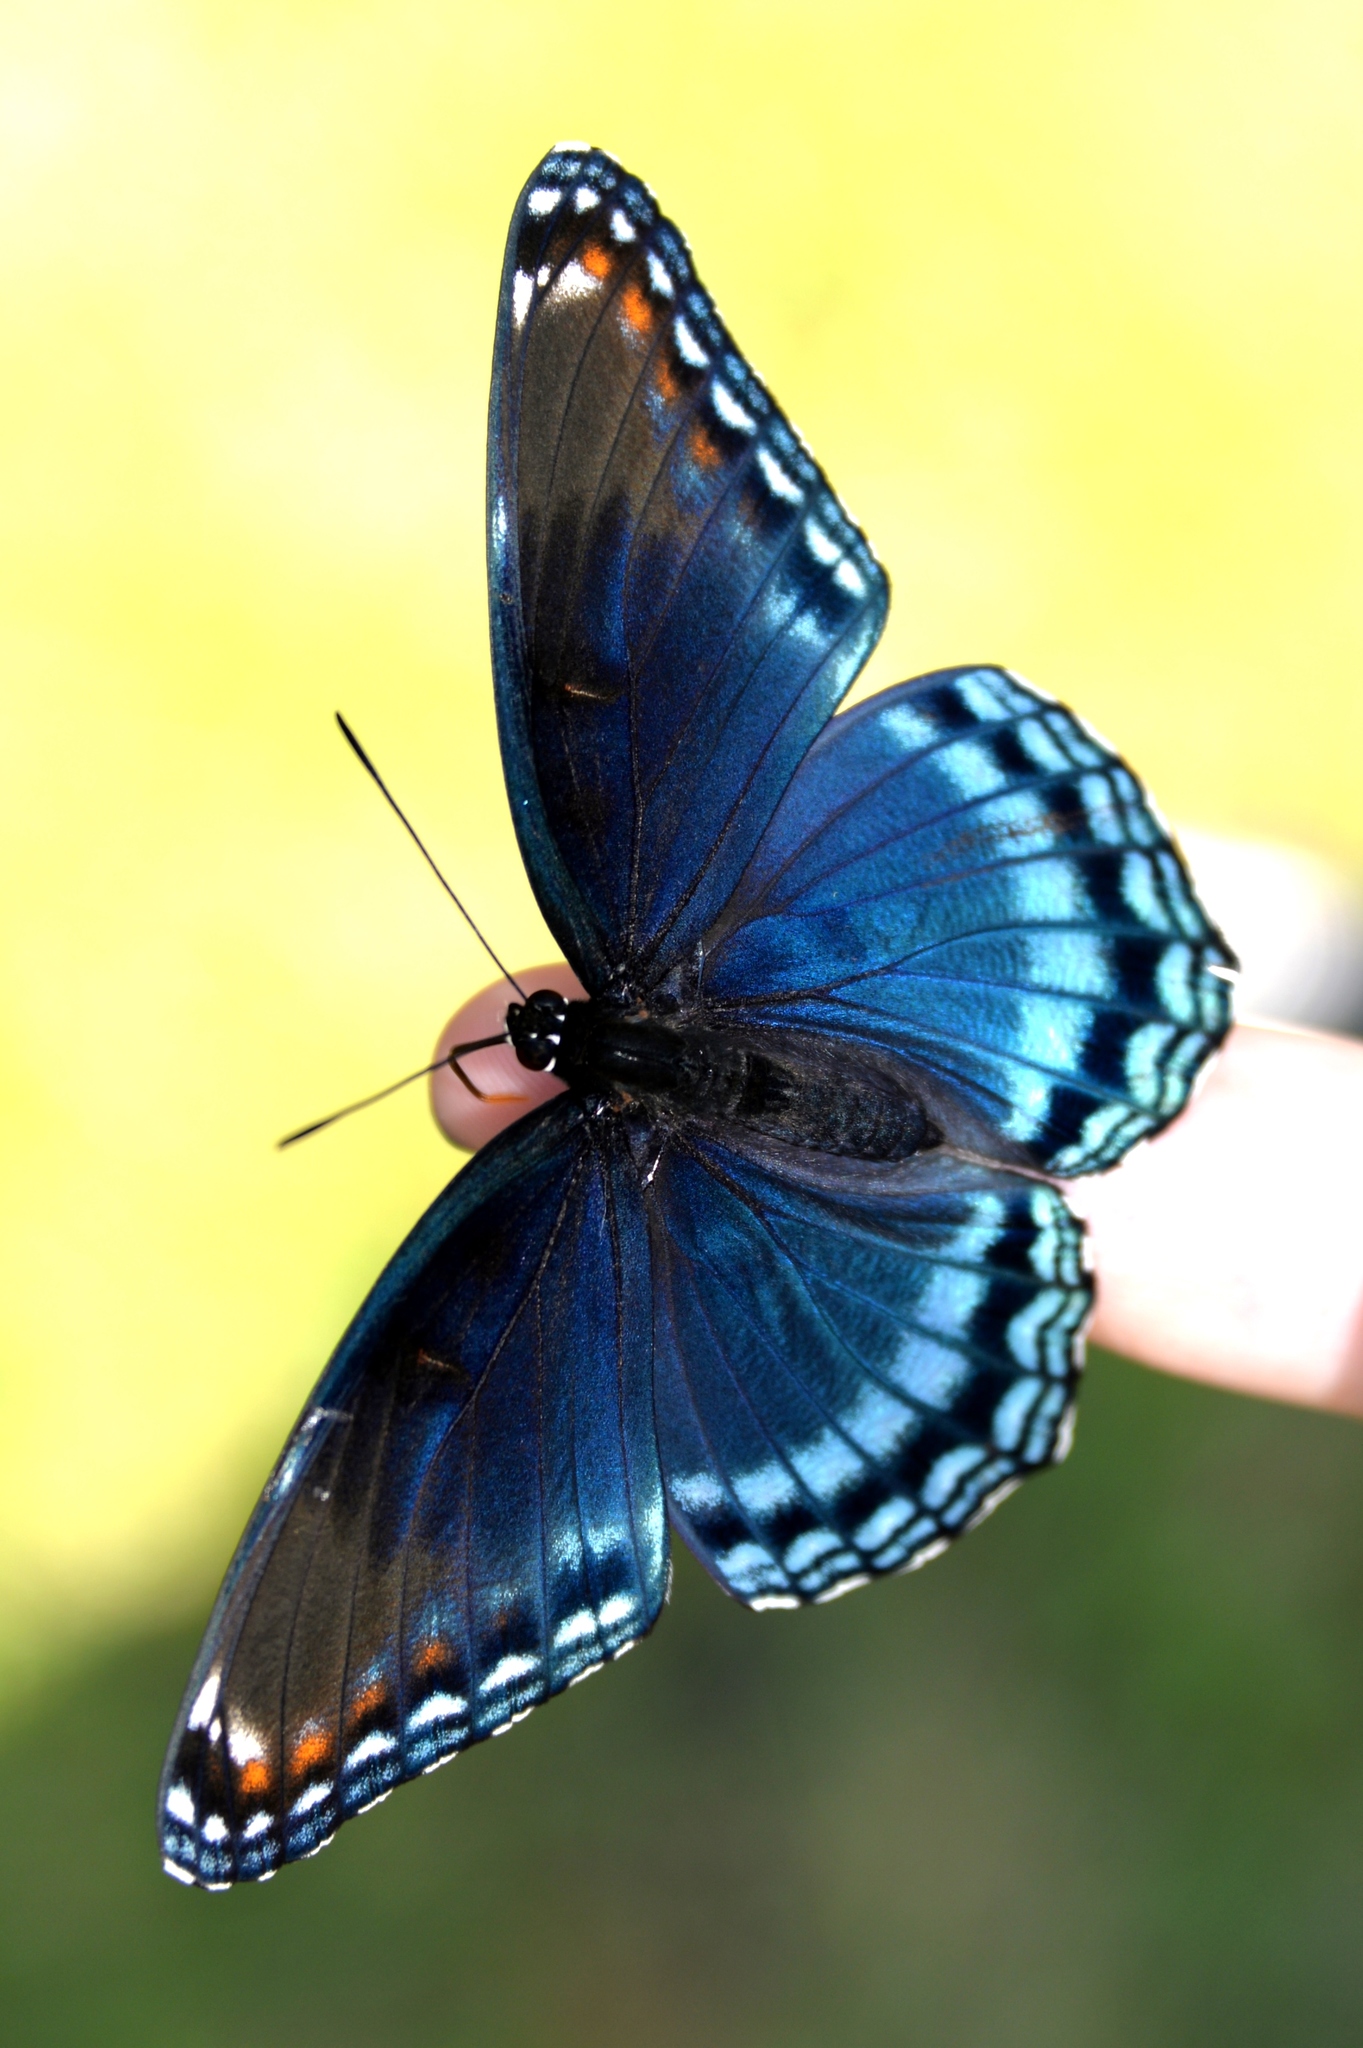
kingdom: Animalia
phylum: Arthropoda
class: Insecta
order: Lepidoptera
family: Nymphalidae
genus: Limenitis
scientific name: Limenitis astyanax
